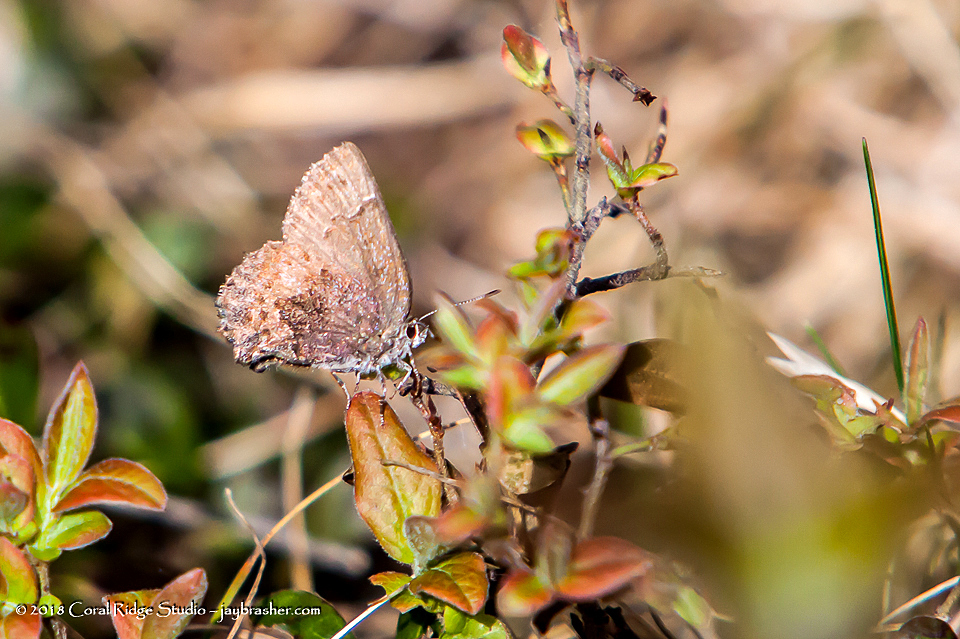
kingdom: Animalia
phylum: Arthropoda
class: Insecta
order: Lepidoptera
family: Lycaenidae
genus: Callophrys
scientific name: Callophrys polios
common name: Hoary elfin
